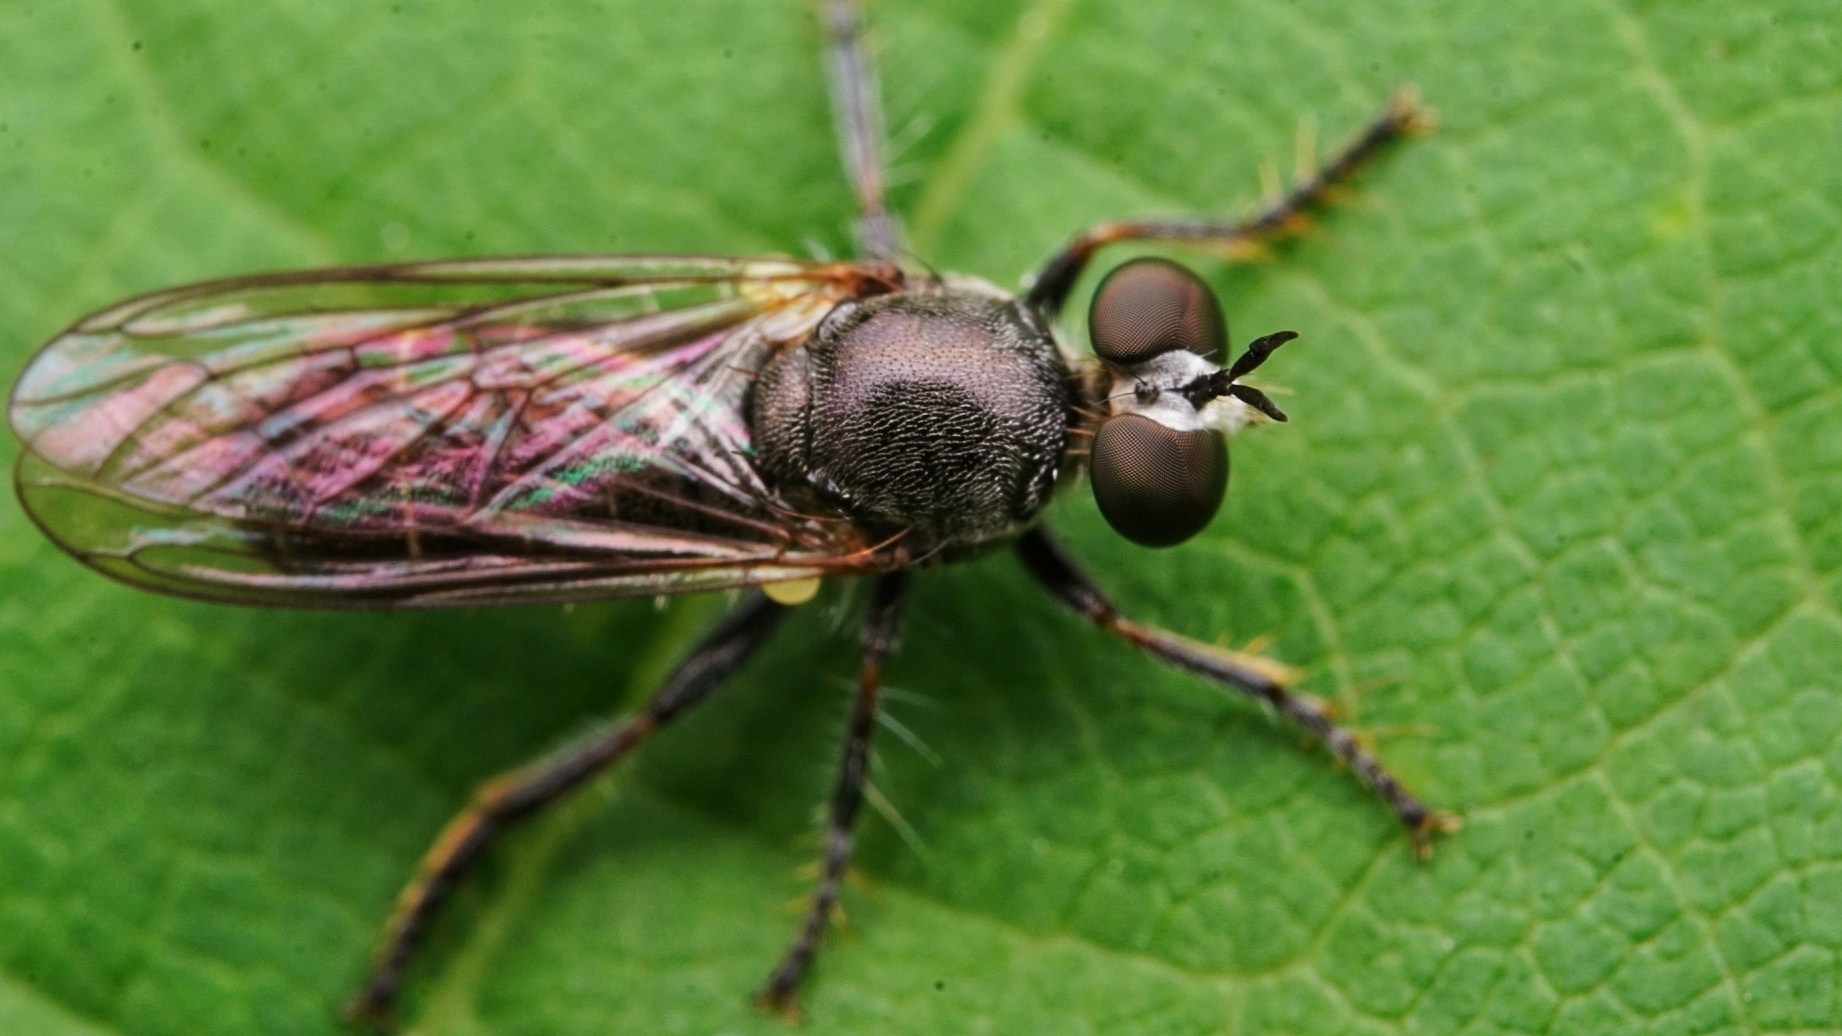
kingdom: Animalia
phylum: Arthropoda
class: Insecta
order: Diptera
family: Asilidae
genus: Atomosia
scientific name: Atomosia puella
